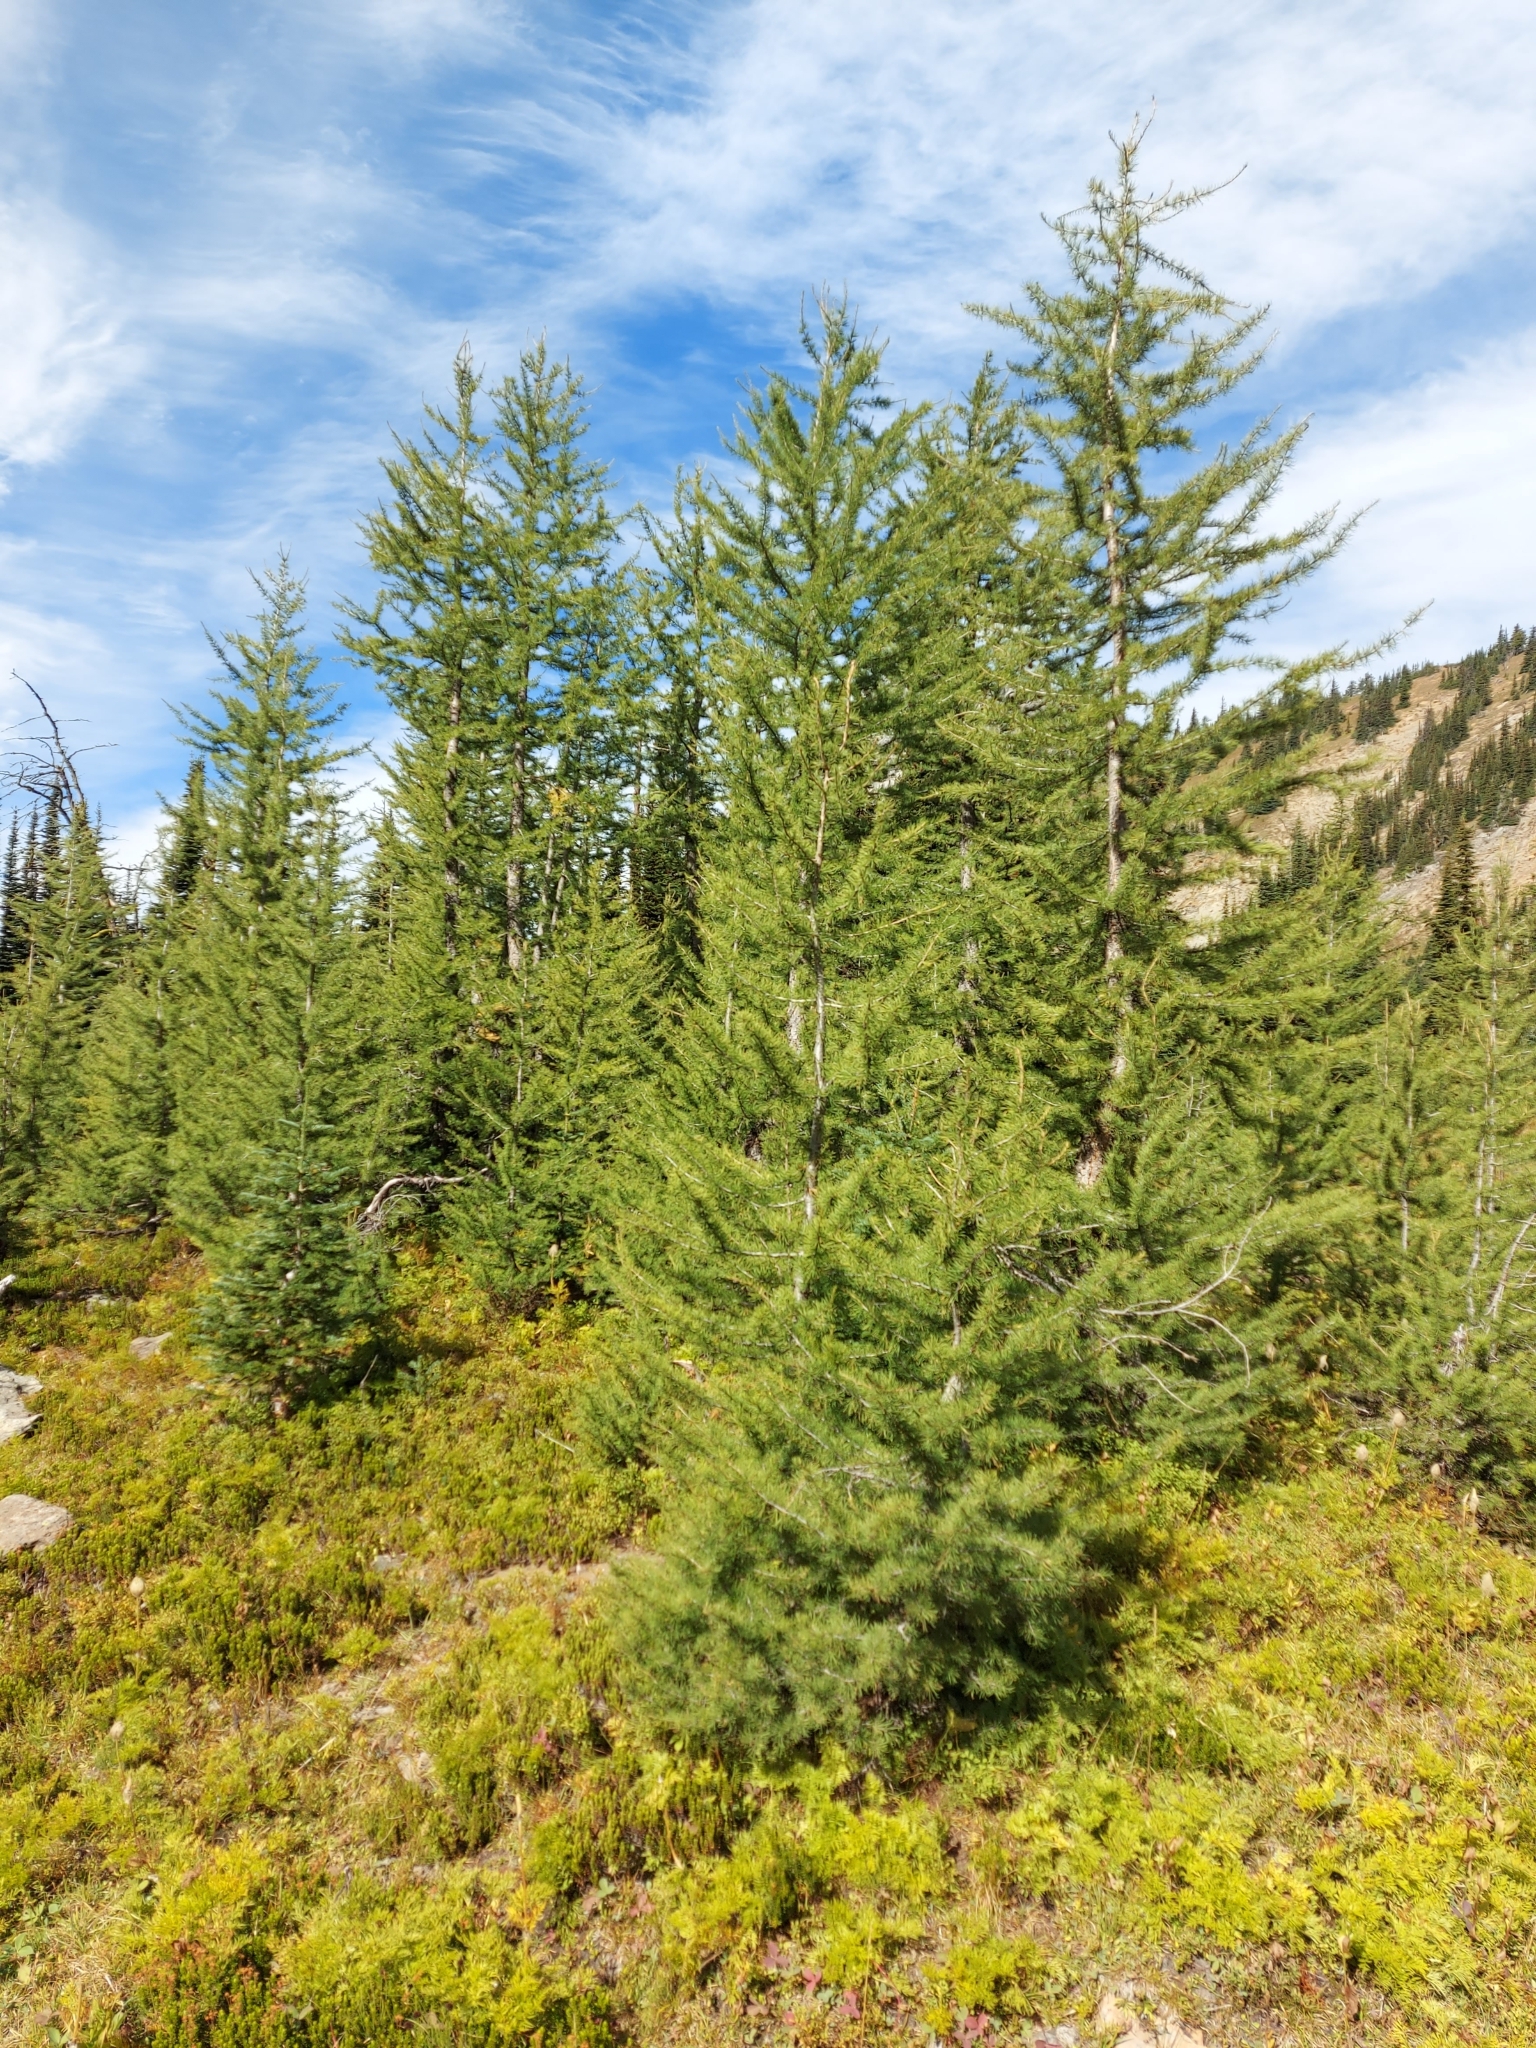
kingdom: Plantae
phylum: Tracheophyta
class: Pinopsida
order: Pinales
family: Pinaceae
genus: Larix
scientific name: Larix lyallii
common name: Alpine larch
